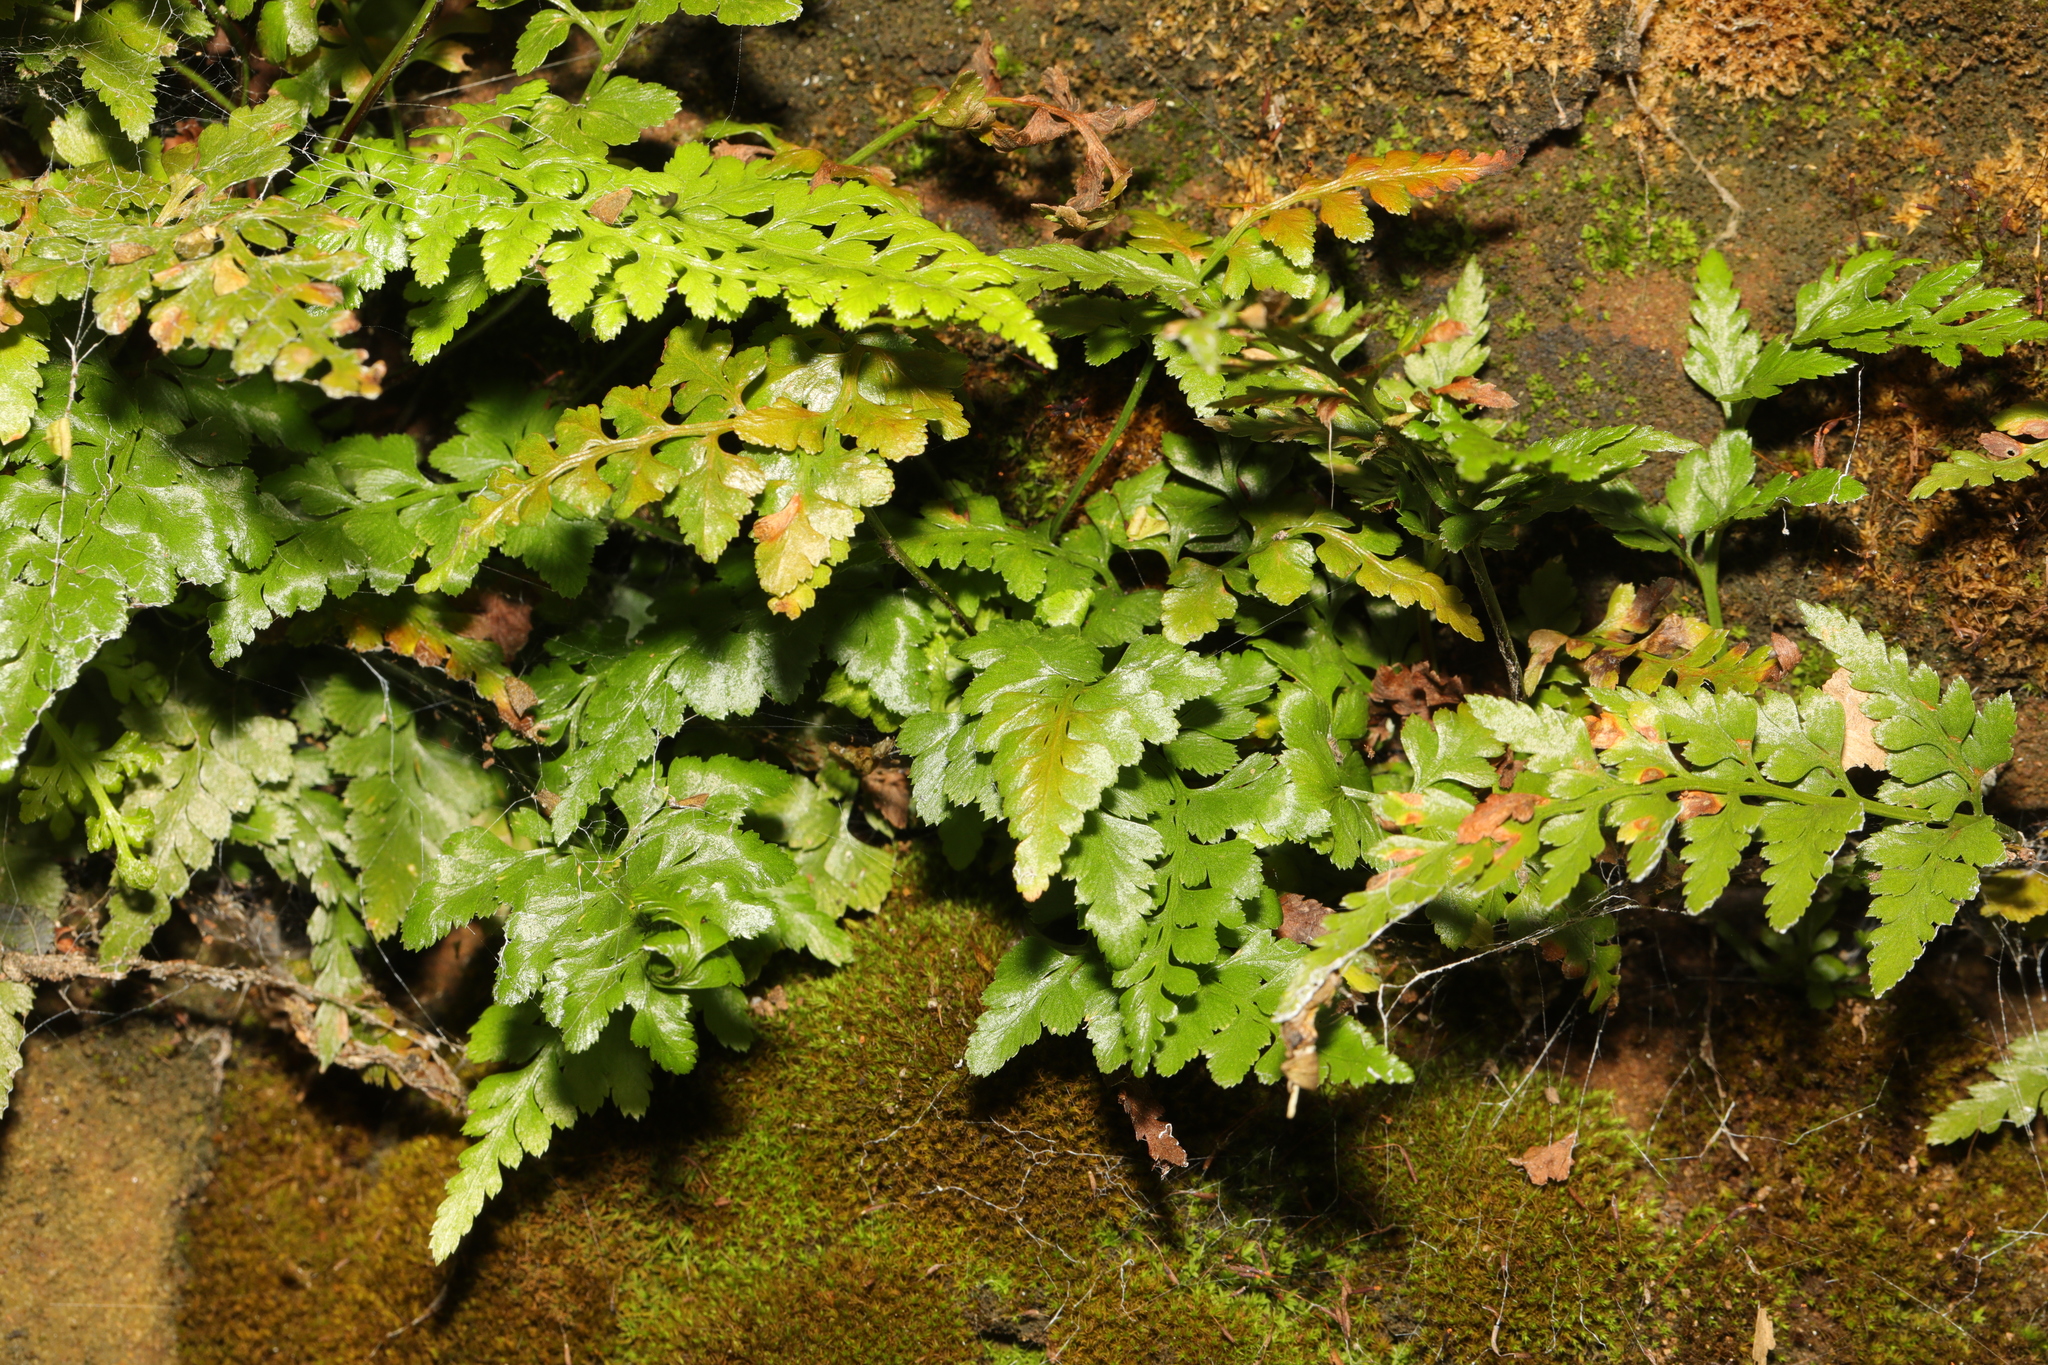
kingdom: Plantae
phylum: Tracheophyta
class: Polypodiopsida
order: Polypodiales
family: Aspleniaceae
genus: Asplenium
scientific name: Asplenium adiantum-nigrum
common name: Black spleenwort
